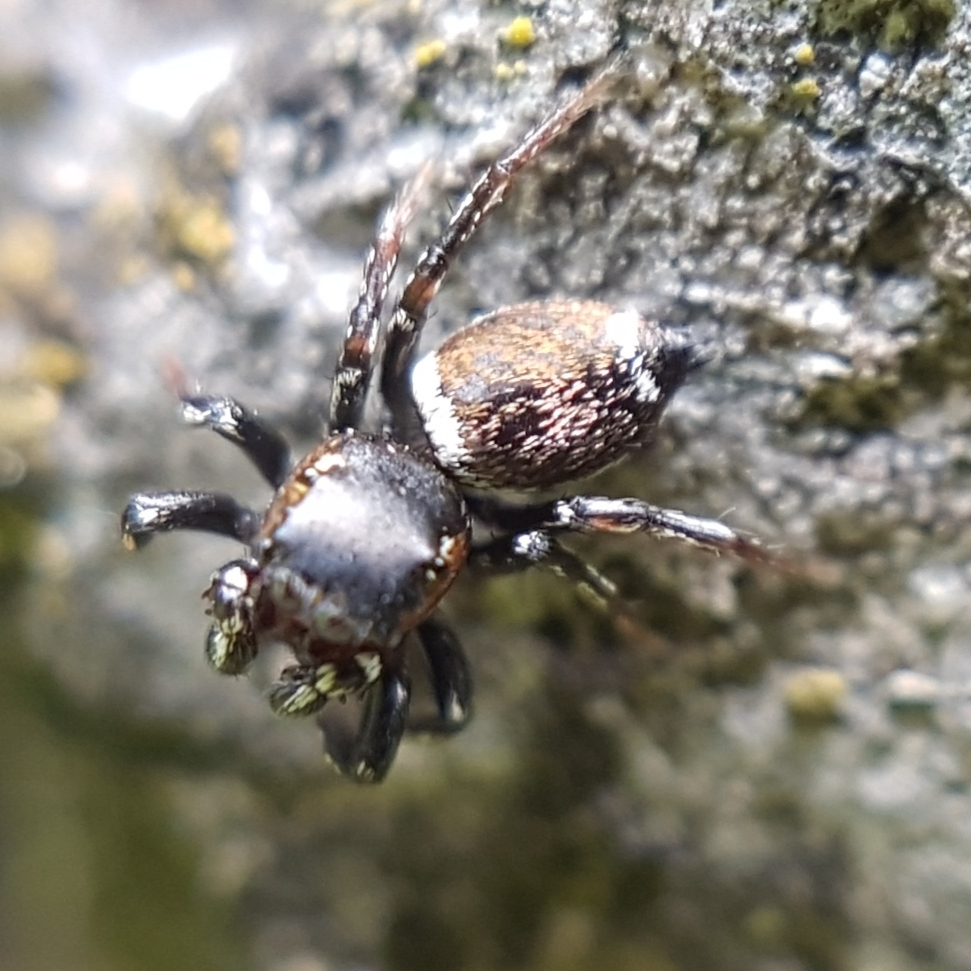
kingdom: Animalia
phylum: Arthropoda
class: Arachnida
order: Araneae
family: Salticidae
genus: Heliophanus
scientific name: Heliophanus tribulosus
